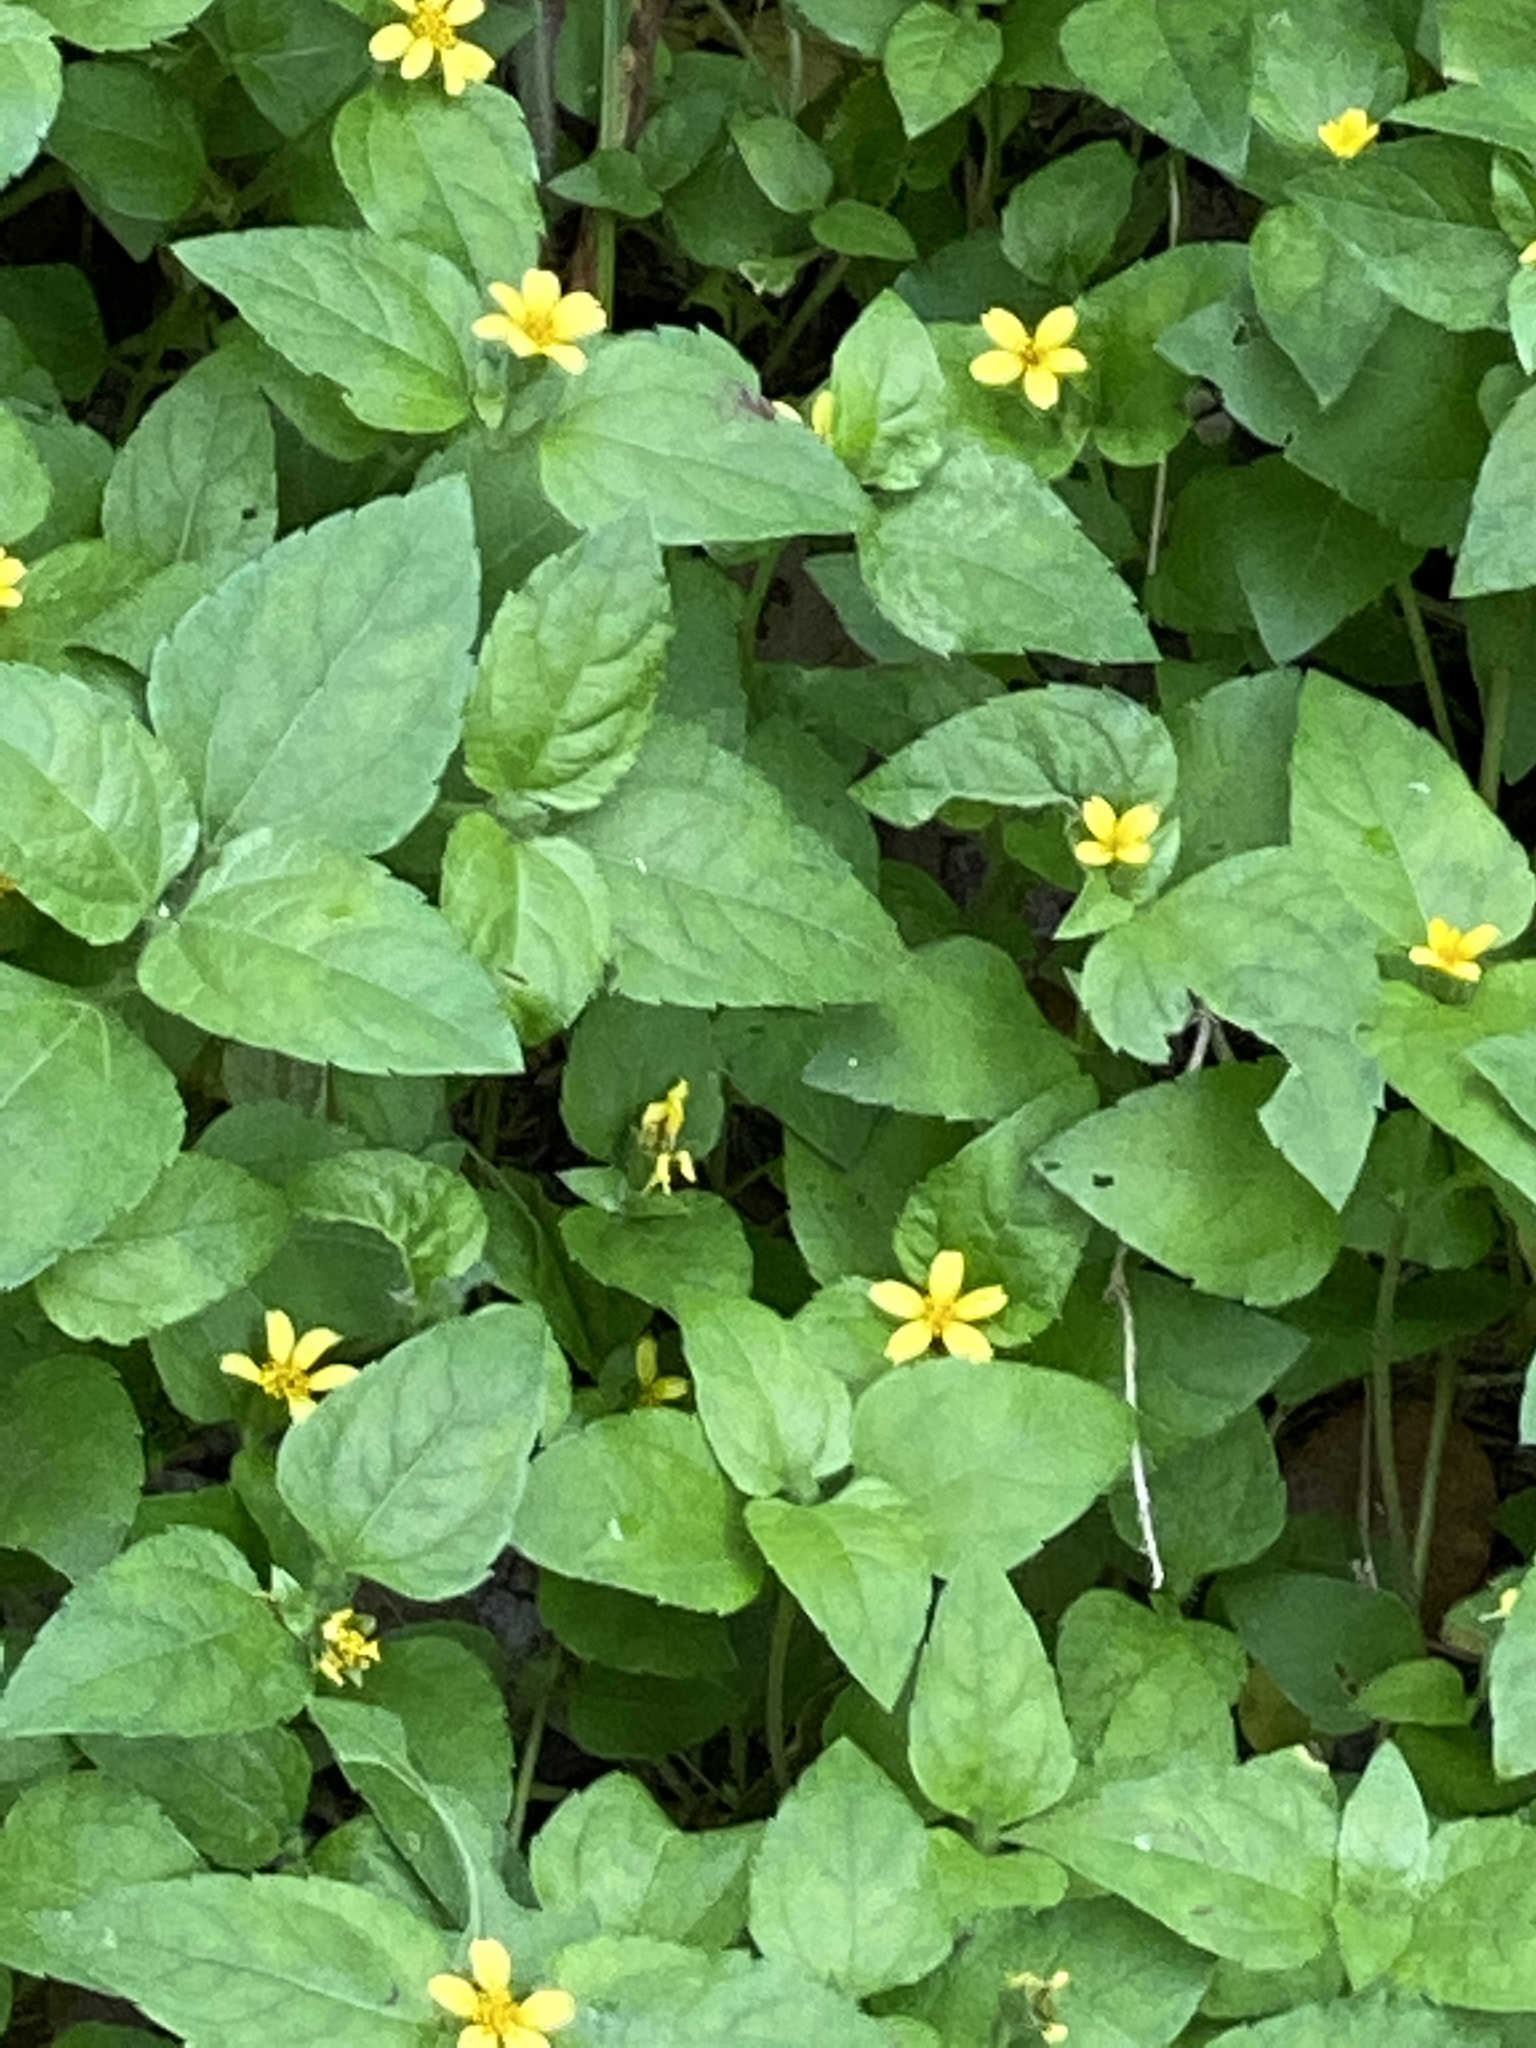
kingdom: Plantae
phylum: Tracheophyta
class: Magnoliopsida
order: Asterales
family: Asteraceae
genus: Calyptocarpus
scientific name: Calyptocarpus vialis
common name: Straggler daisy
